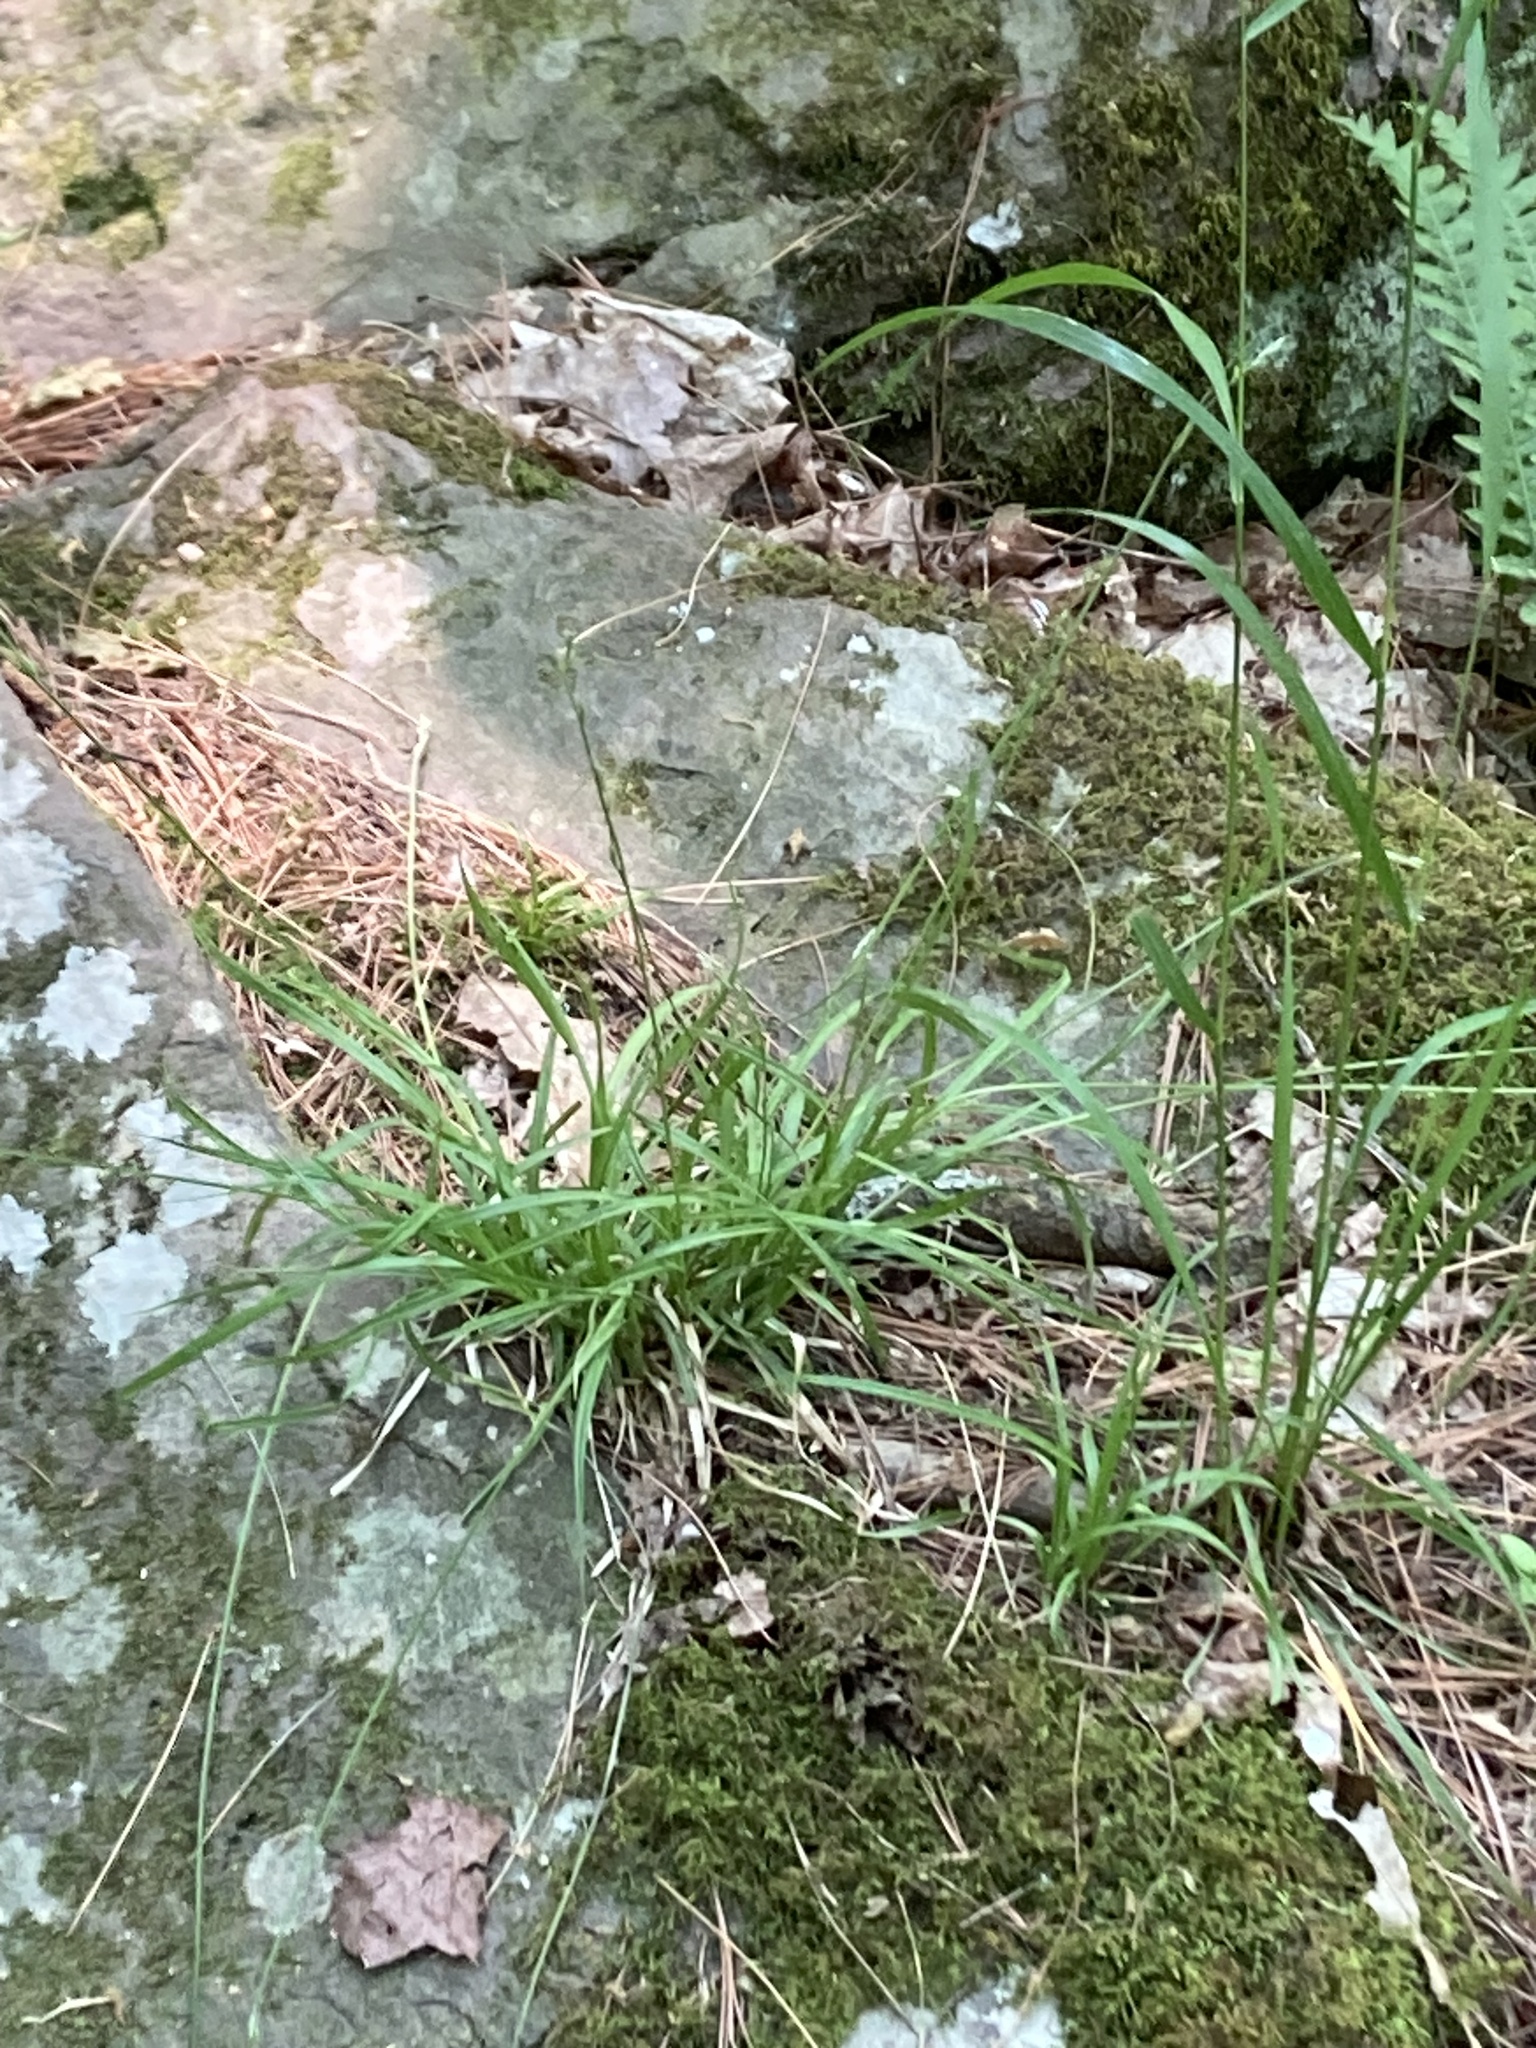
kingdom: Plantae
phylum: Tracheophyta
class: Liliopsida
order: Poales
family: Cyperaceae
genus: Carex
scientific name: Carex deweyana
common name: Dewey's sedge
